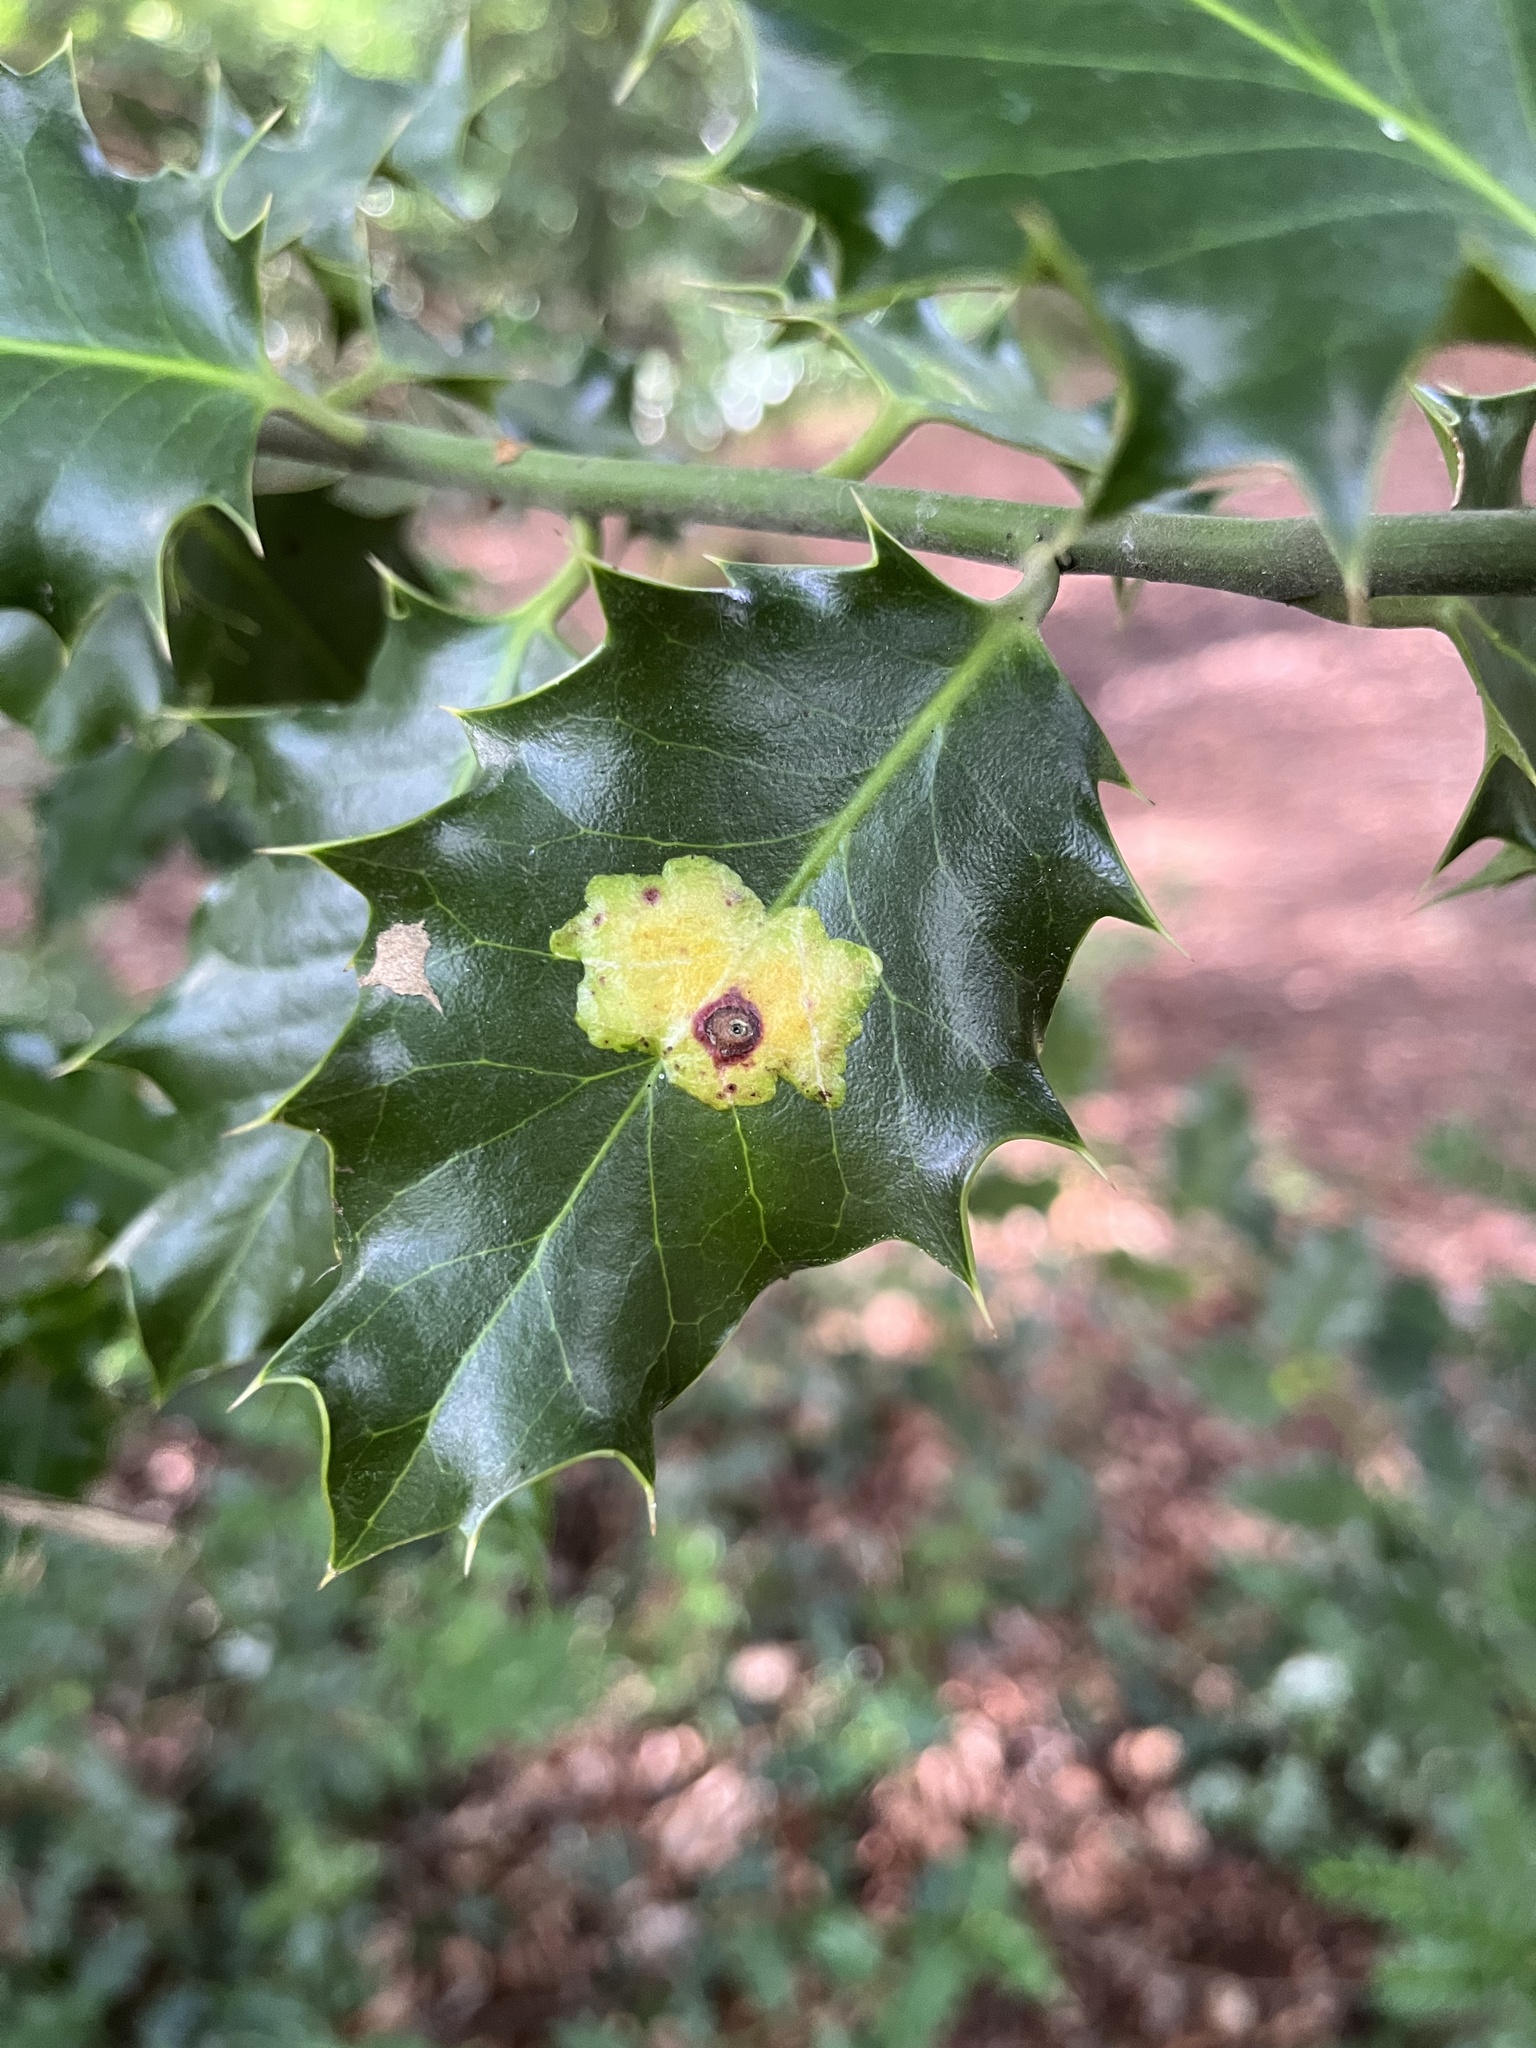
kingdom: Animalia
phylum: Arthropoda
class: Insecta
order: Diptera
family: Agromyzidae
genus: Phytomyza
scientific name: Phytomyza ilicis
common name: Holly leafminer
